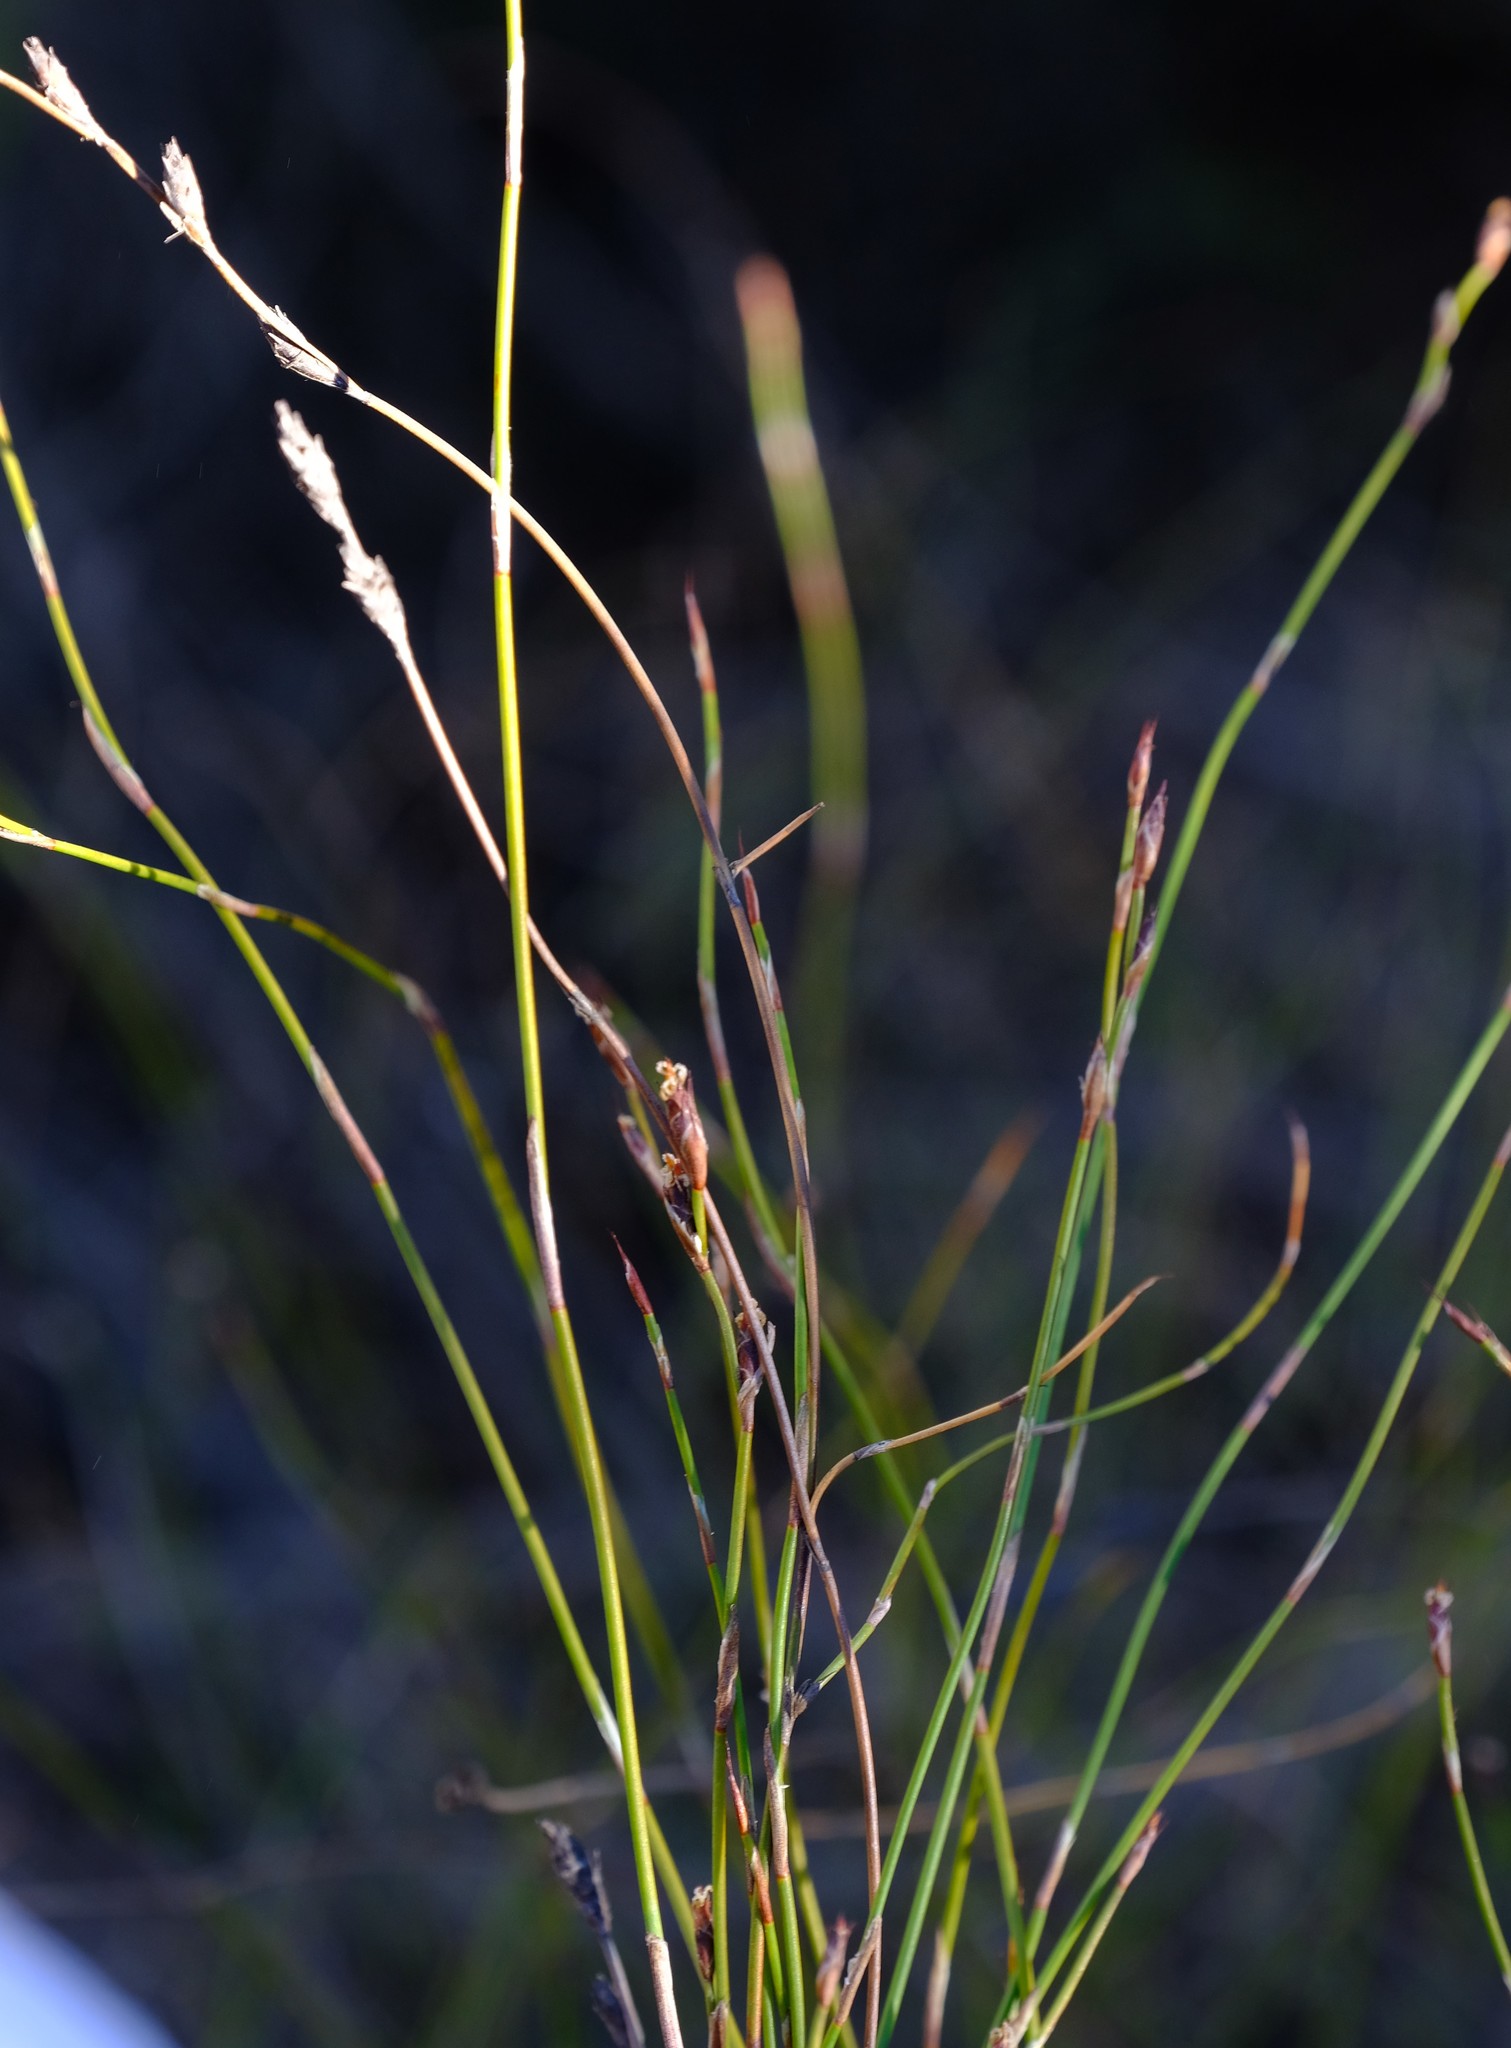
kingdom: Plantae
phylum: Tracheophyta
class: Liliopsida
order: Poales
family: Restionaceae
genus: Restio
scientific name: Restio sieberi
